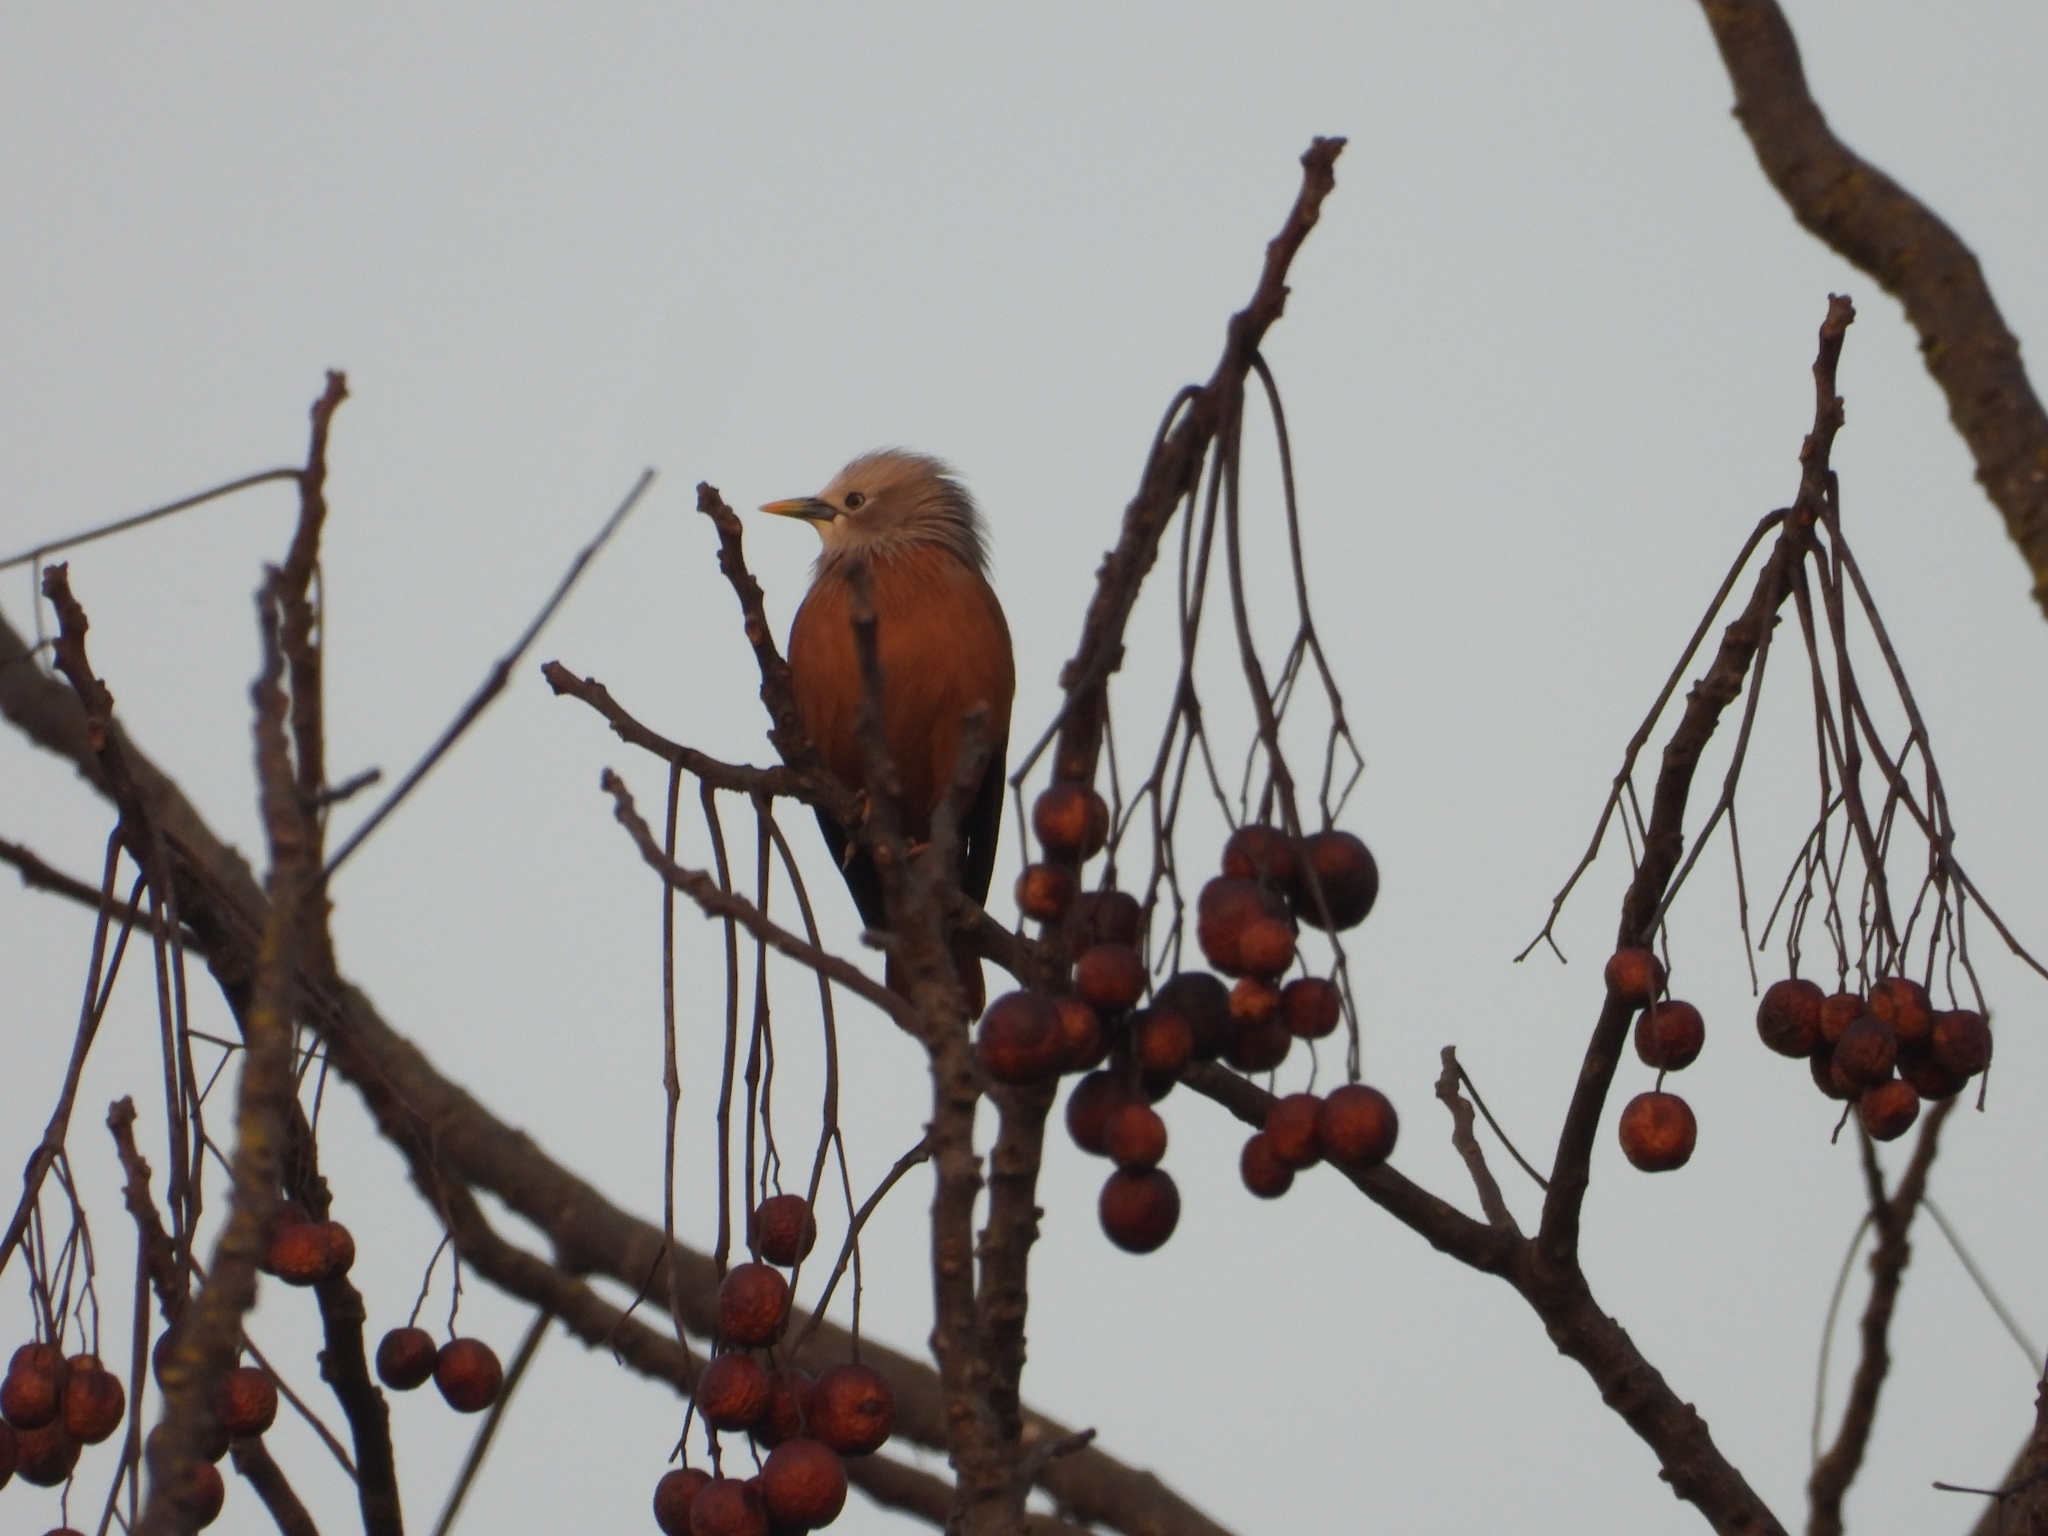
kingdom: Animalia
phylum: Chordata
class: Aves
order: Passeriformes
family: Sturnidae
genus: Sturnia
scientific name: Sturnia malabarica
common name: Chestnut-tailed starling
